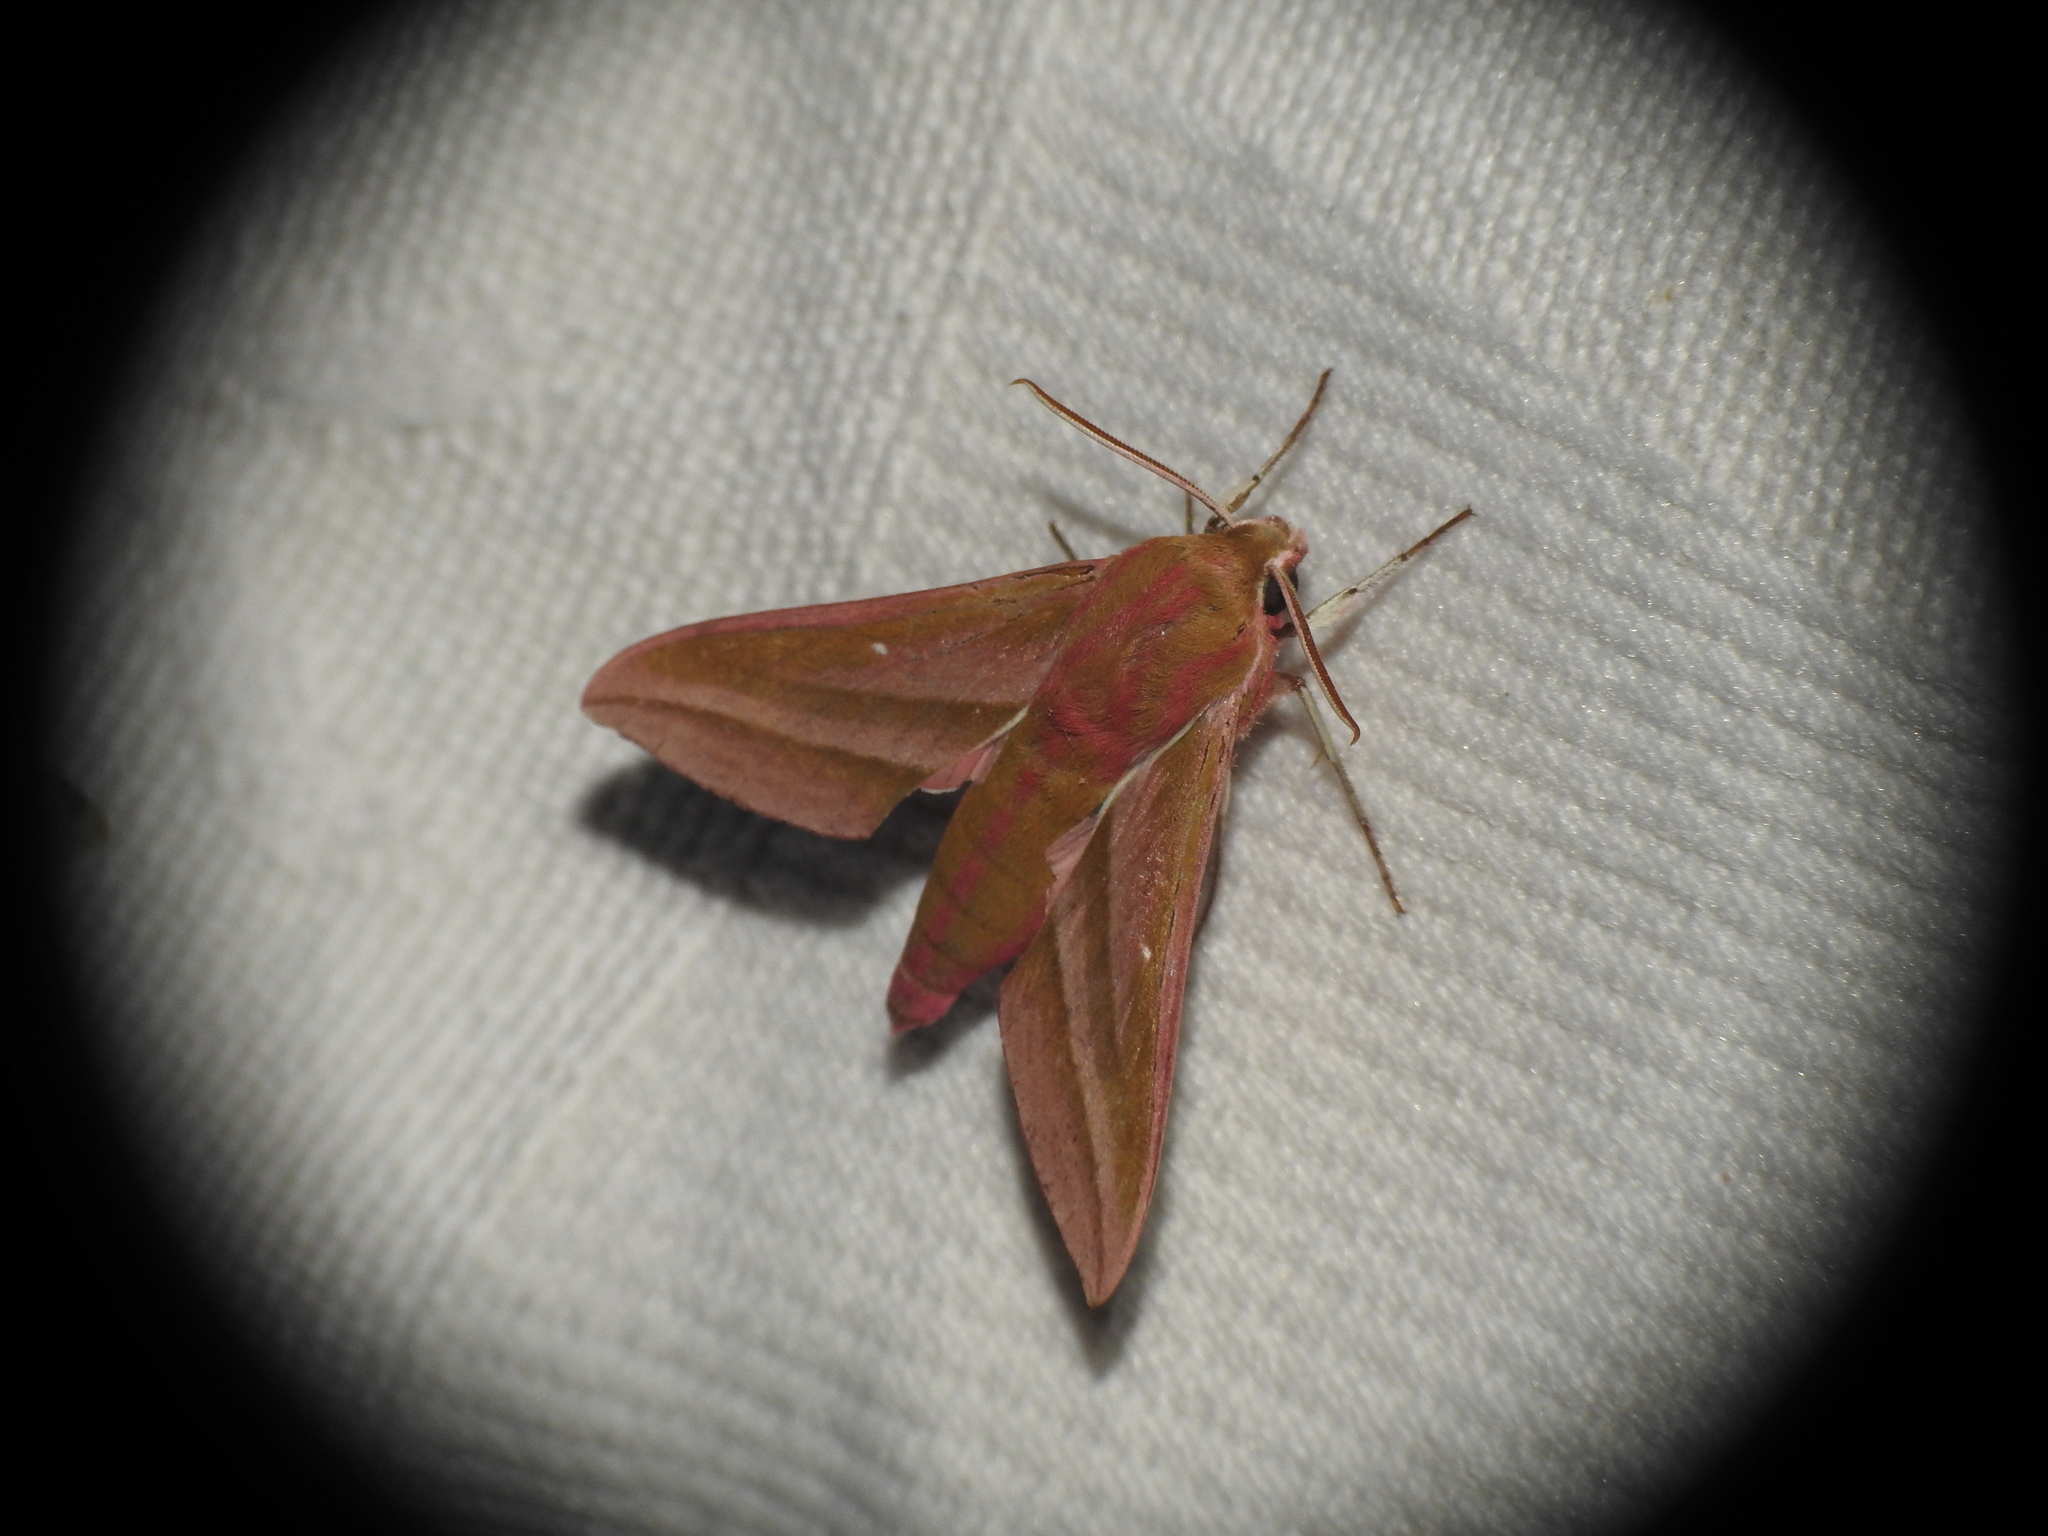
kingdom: Animalia
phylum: Arthropoda
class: Insecta
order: Lepidoptera
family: Sphingidae
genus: Deilephila
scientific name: Deilephila elpenor
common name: Elephant hawk-moth
